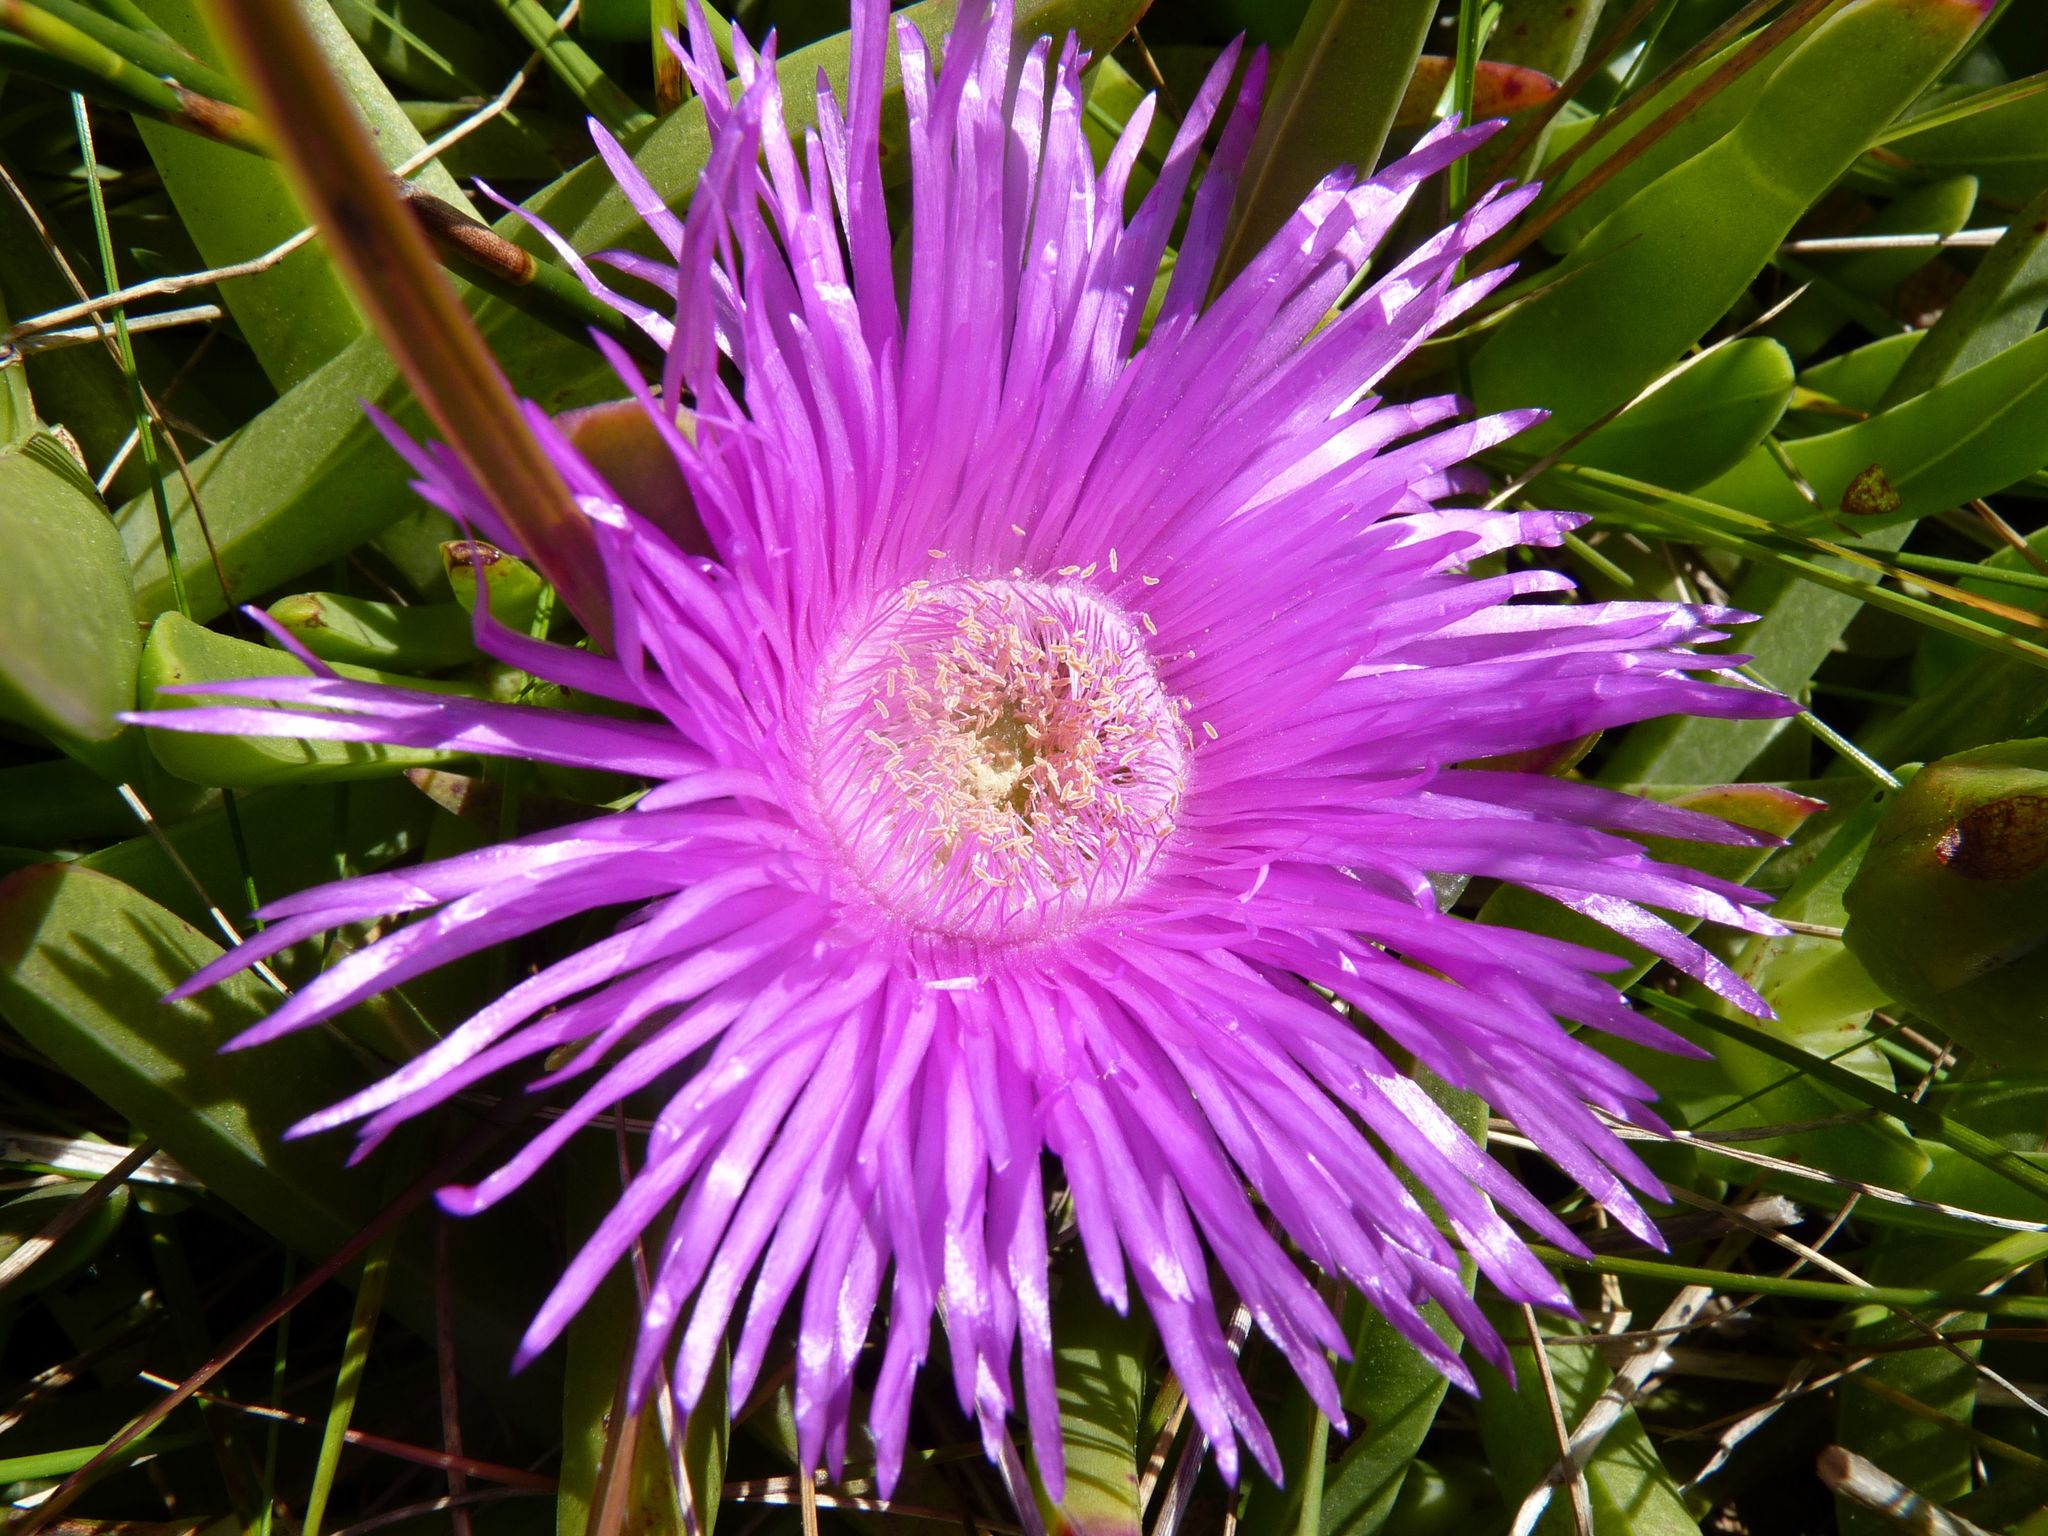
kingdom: Plantae
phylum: Tracheophyta
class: Magnoliopsida
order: Caryophyllales
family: Aizoaceae
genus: Carpobrotus
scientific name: Carpobrotus deliciosus
